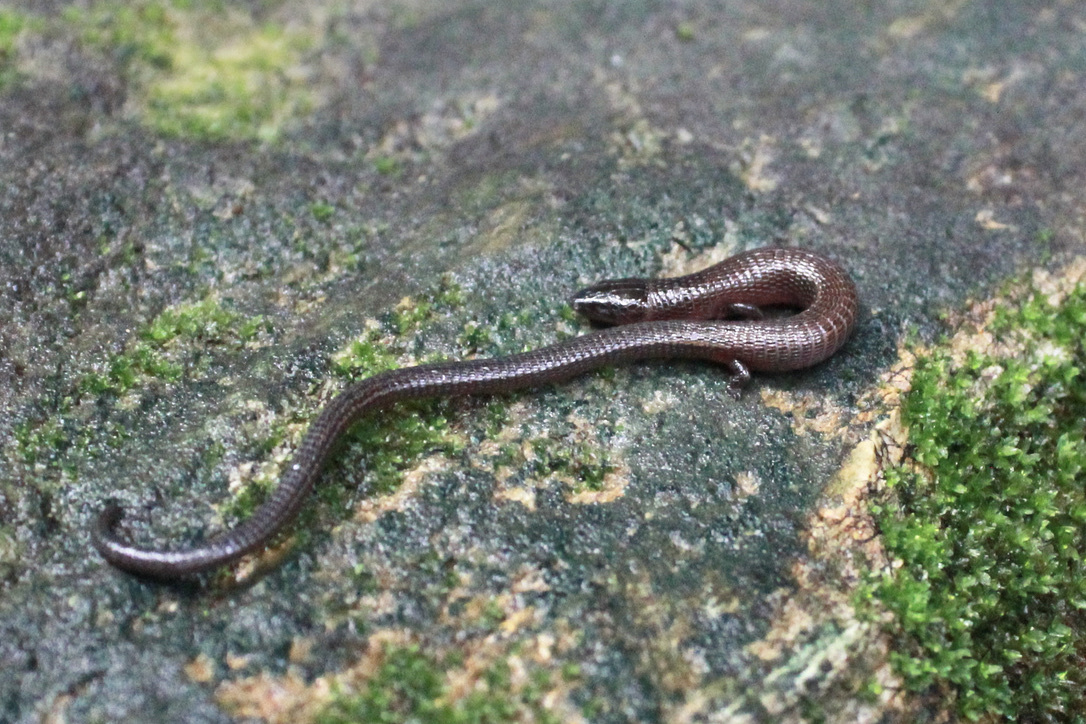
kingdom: Animalia
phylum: Chordata
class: Squamata
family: Gymnophthalmidae
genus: Bachia
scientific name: Bachia trinitatis
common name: Trinidad bachia
